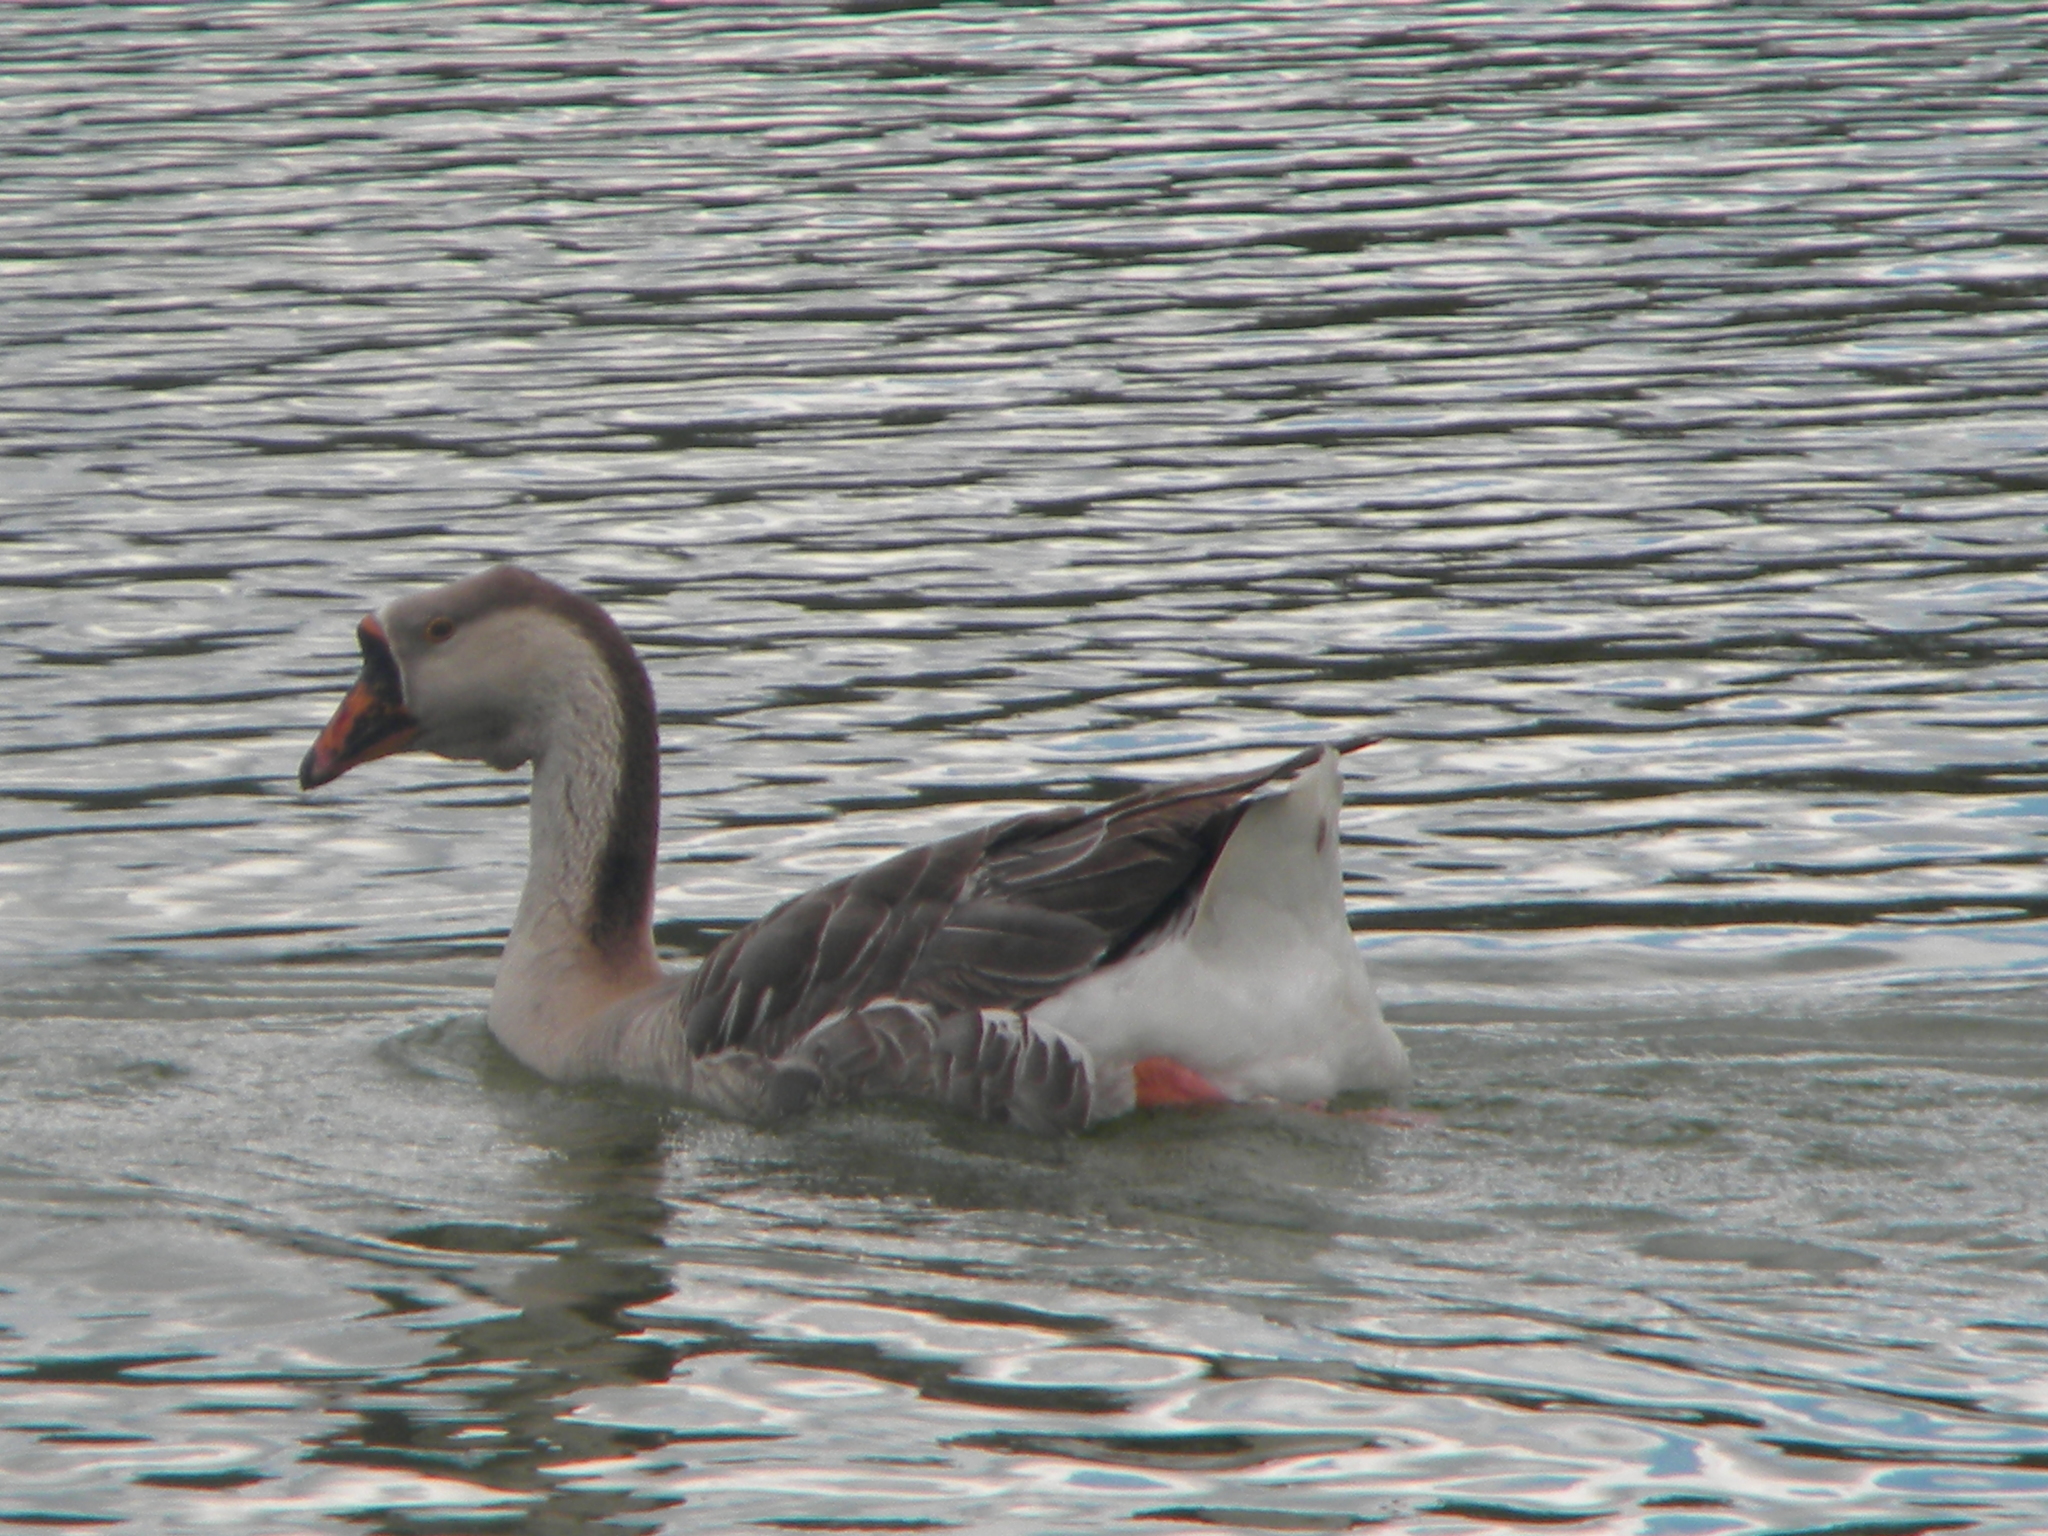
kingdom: Animalia
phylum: Chordata
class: Aves
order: Anseriformes
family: Anatidae
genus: Anser
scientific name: Anser cygnoides
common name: Swan goose
